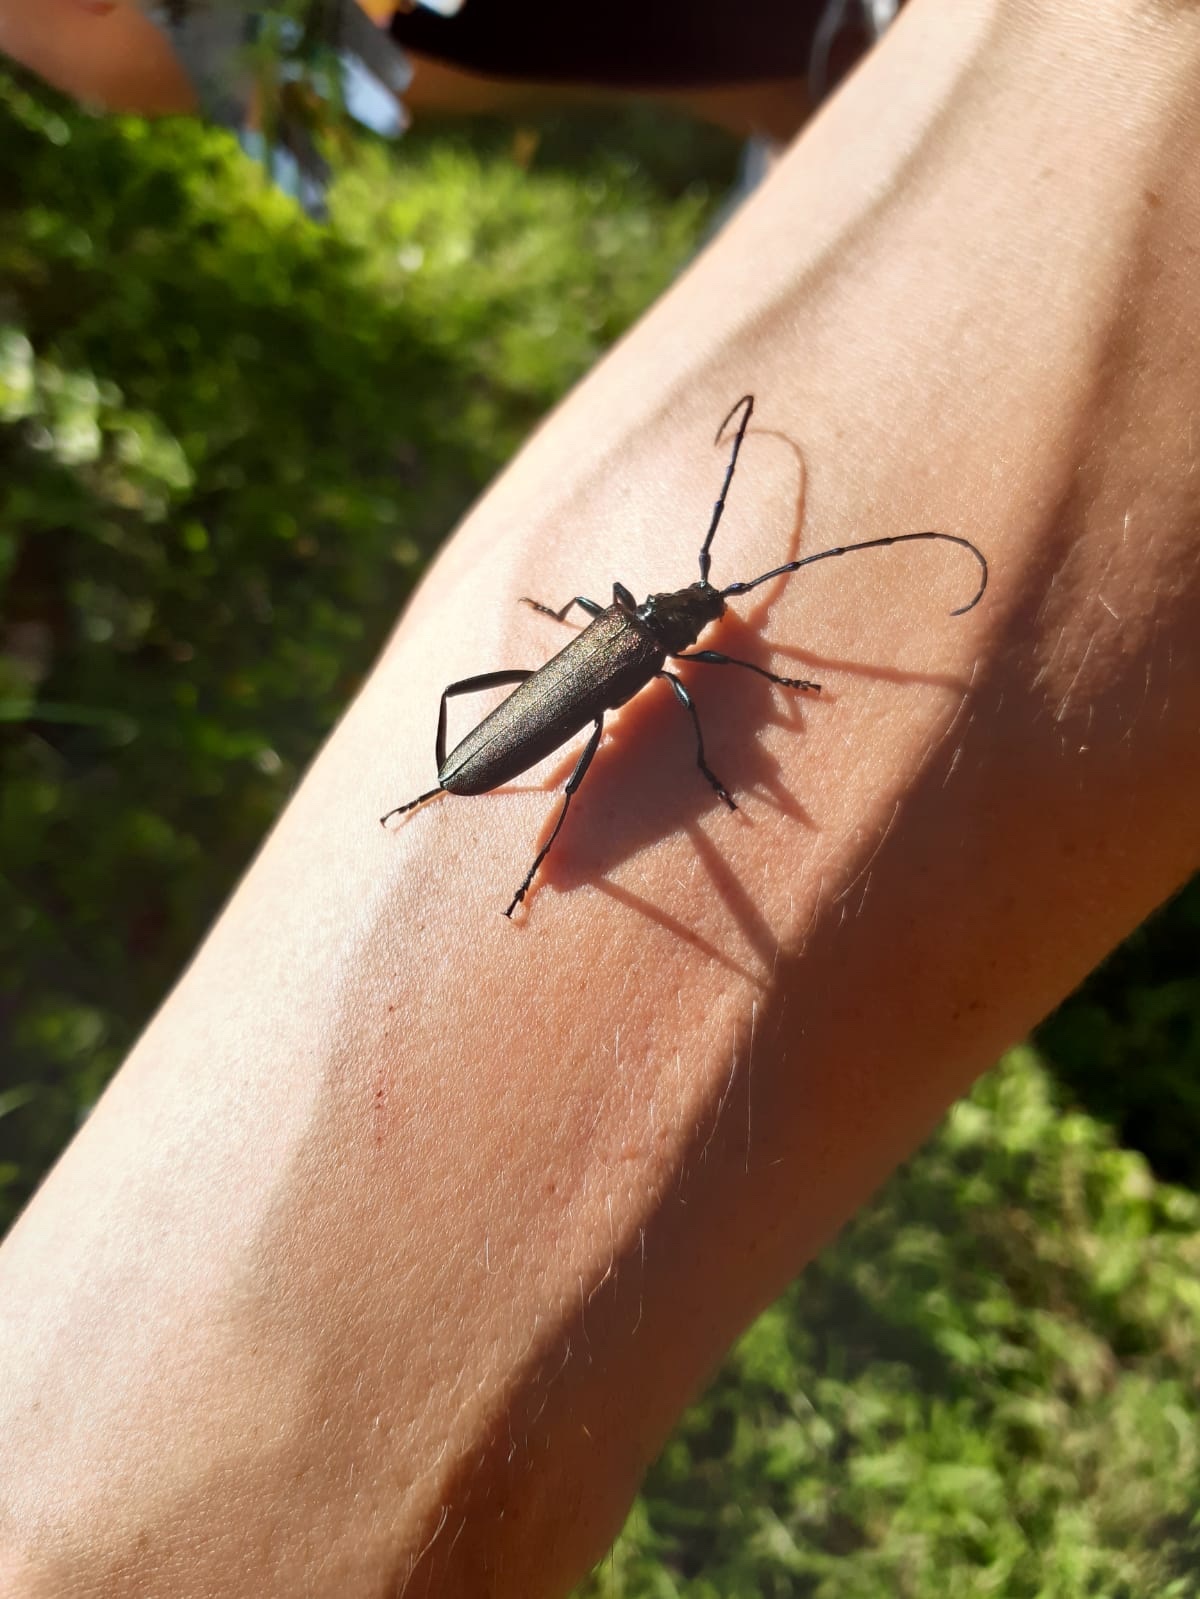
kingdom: Animalia
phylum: Arthropoda
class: Insecta
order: Coleoptera
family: Cerambycidae
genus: Aromia
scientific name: Aromia moschata
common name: Musk beetle
